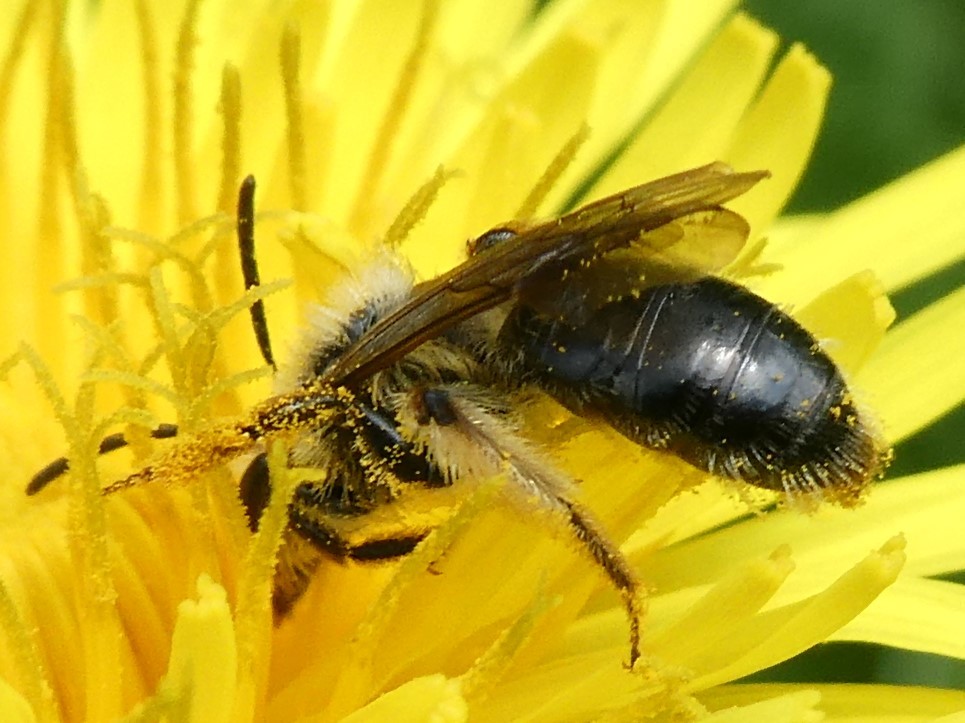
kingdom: Animalia
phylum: Arthropoda
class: Insecta
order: Hymenoptera
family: Andrenidae
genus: Andrena
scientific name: Andrena rufosignata
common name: Brown-fovea miner
